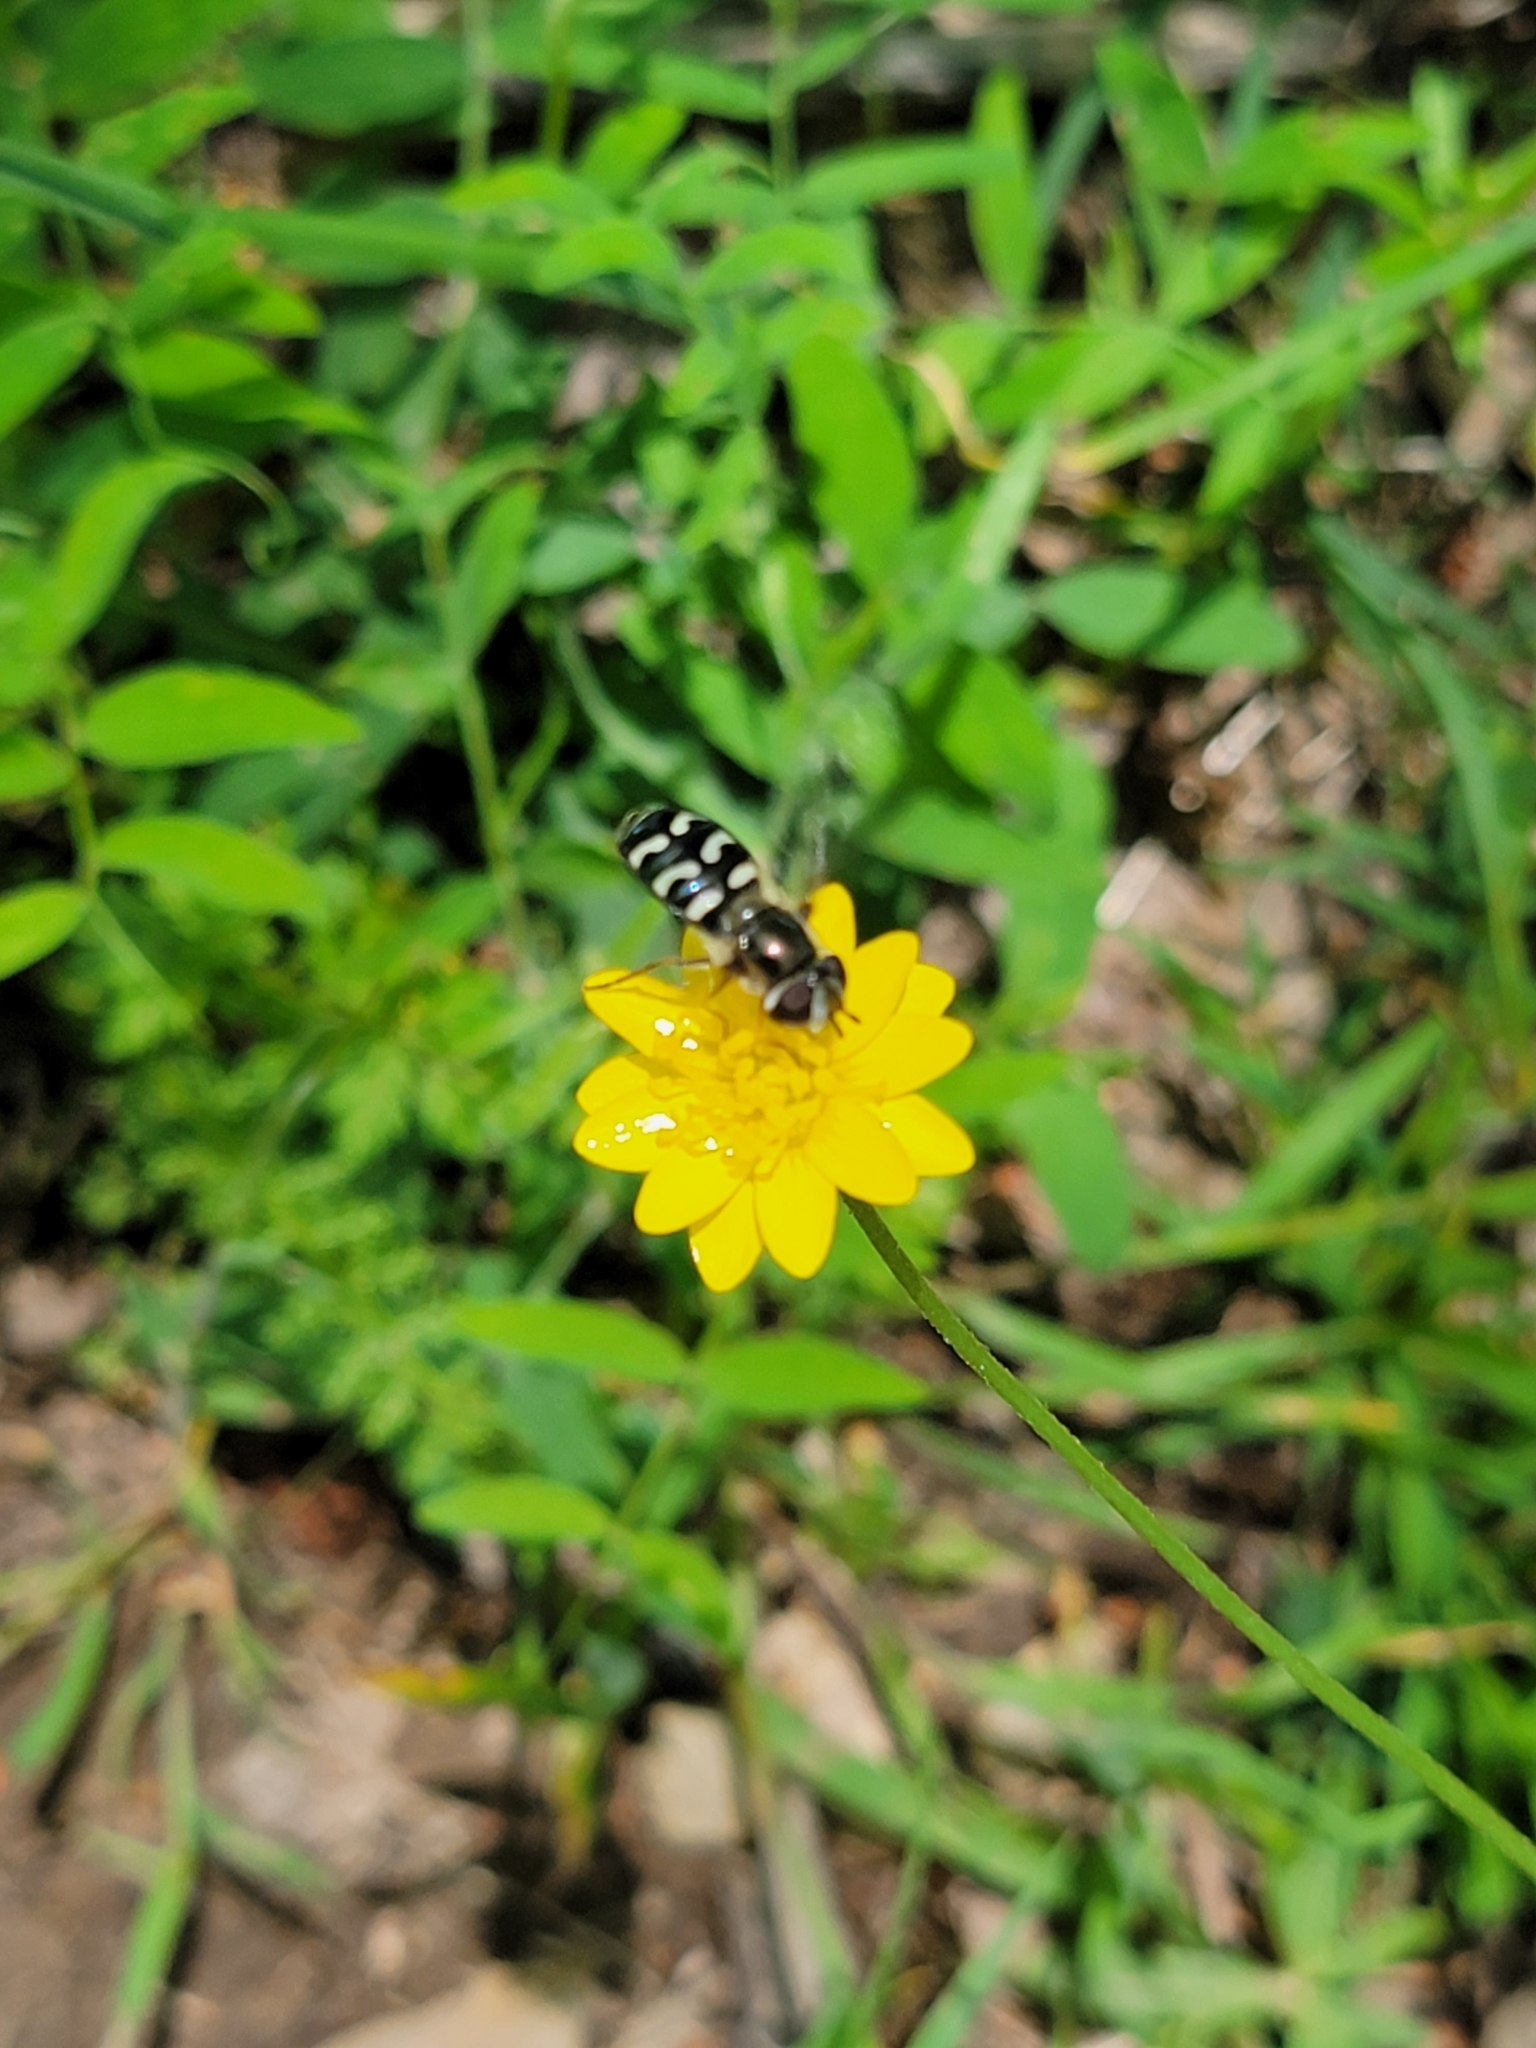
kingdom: Animalia
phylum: Arthropoda
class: Insecta
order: Diptera
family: Syrphidae
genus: Scaeva
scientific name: Scaeva affinis
